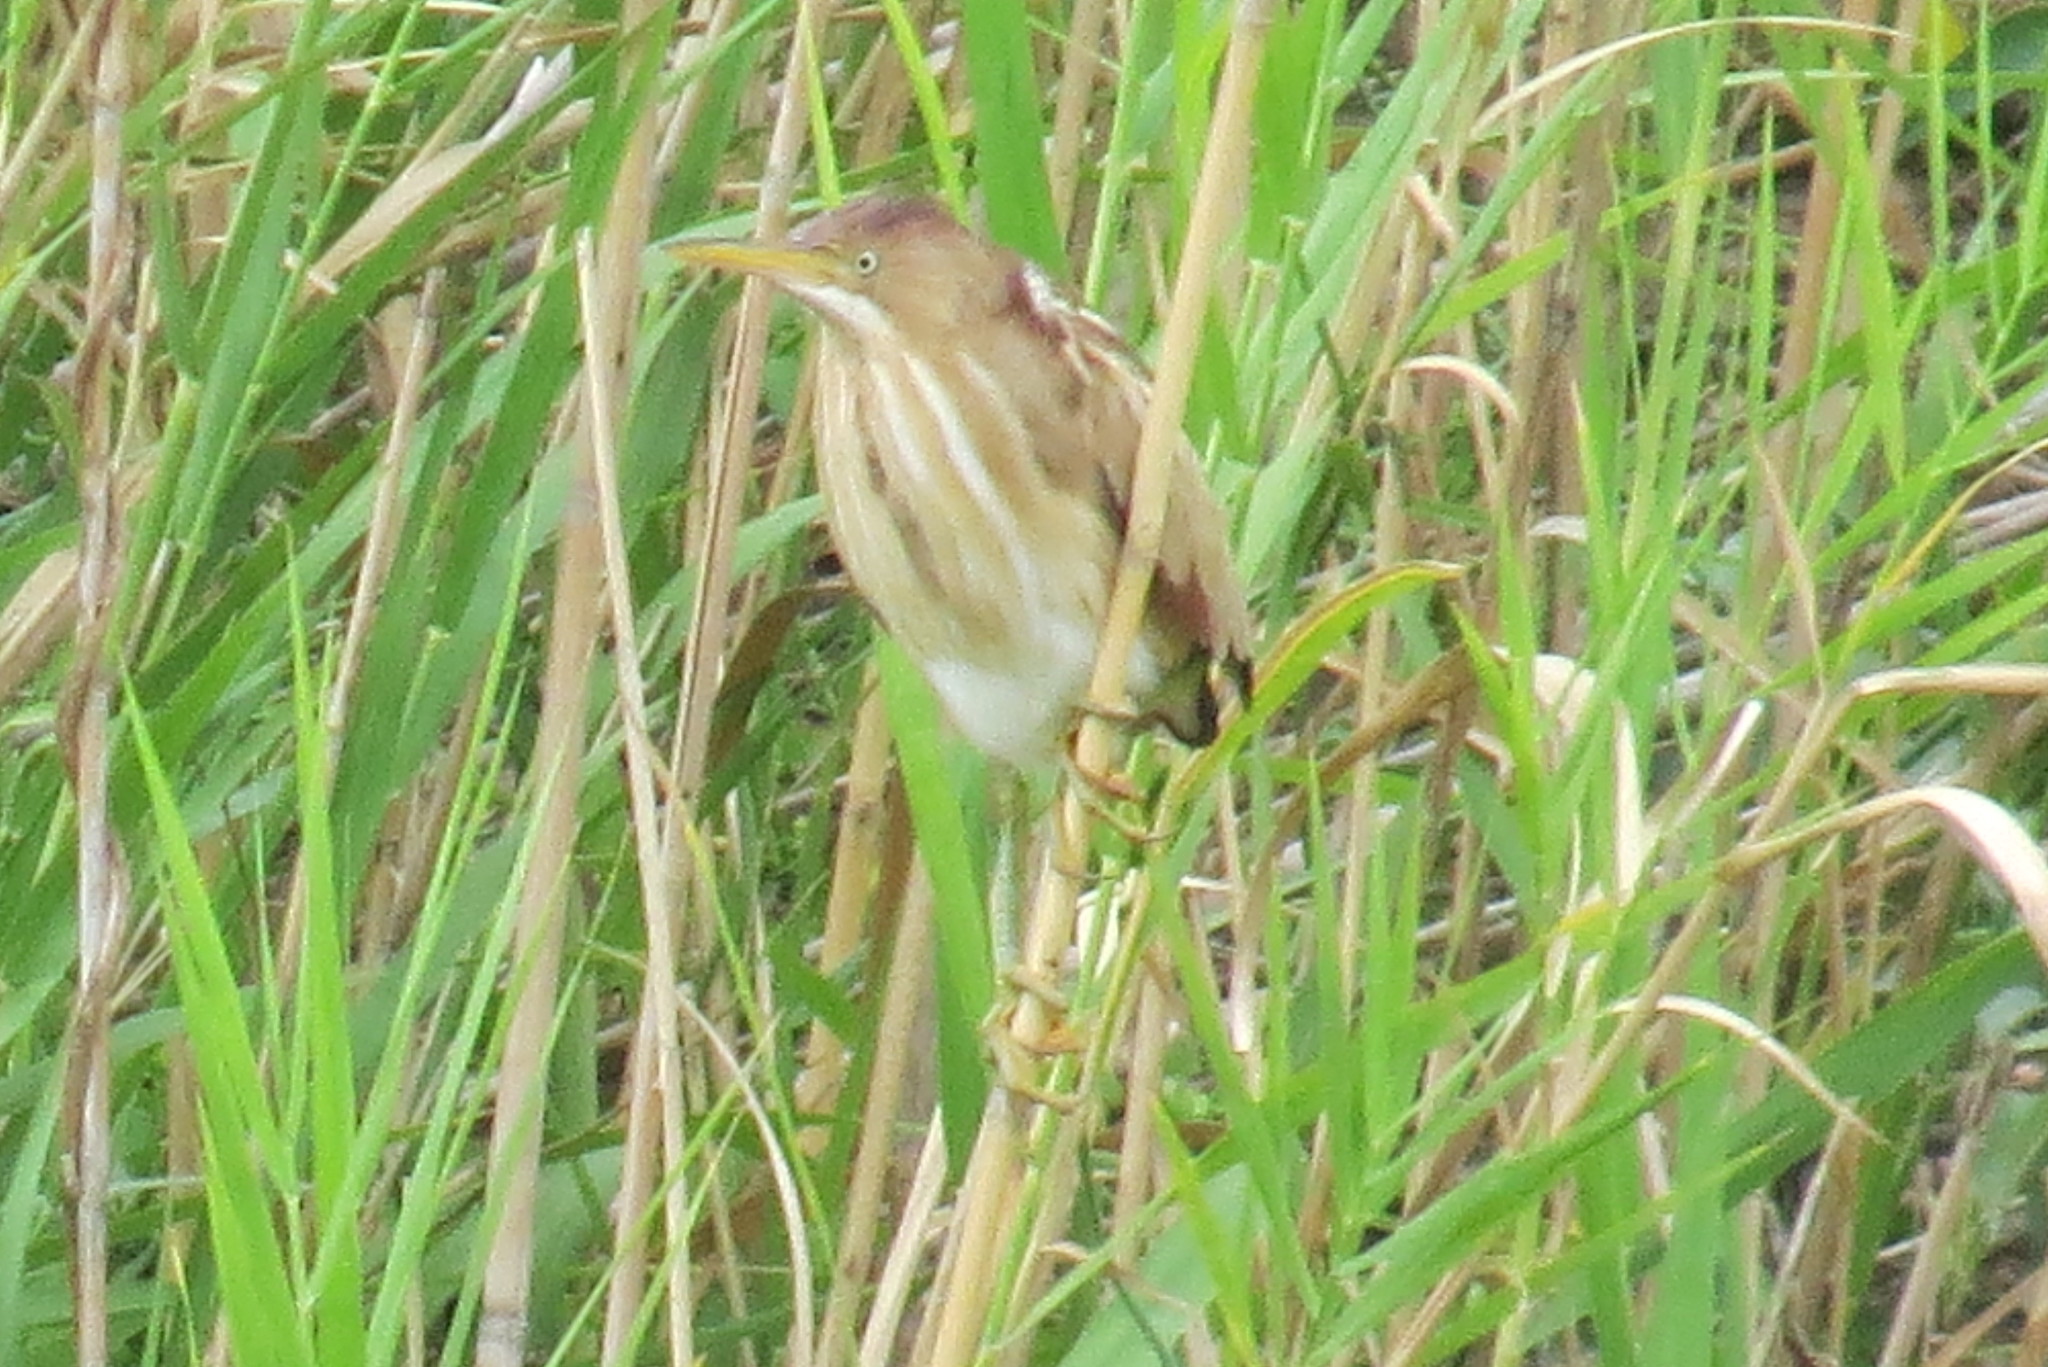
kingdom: Animalia
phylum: Chordata
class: Aves
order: Pelecaniformes
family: Ardeidae
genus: Ixobrychus
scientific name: Ixobrychus exilis
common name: Least bittern
